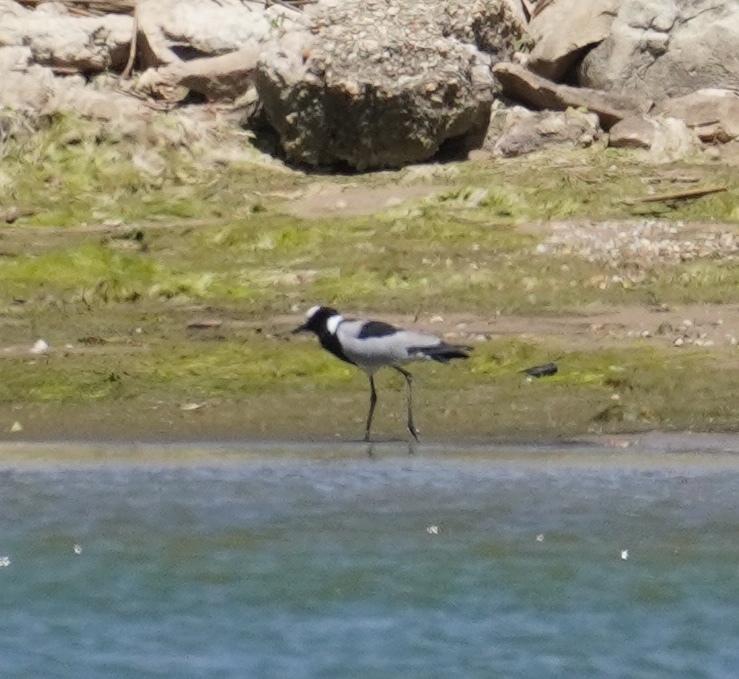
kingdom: Animalia
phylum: Chordata
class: Aves
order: Charadriiformes
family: Charadriidae
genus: Vanellus
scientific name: Vanellus armatus
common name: Blacksmith lapwing
